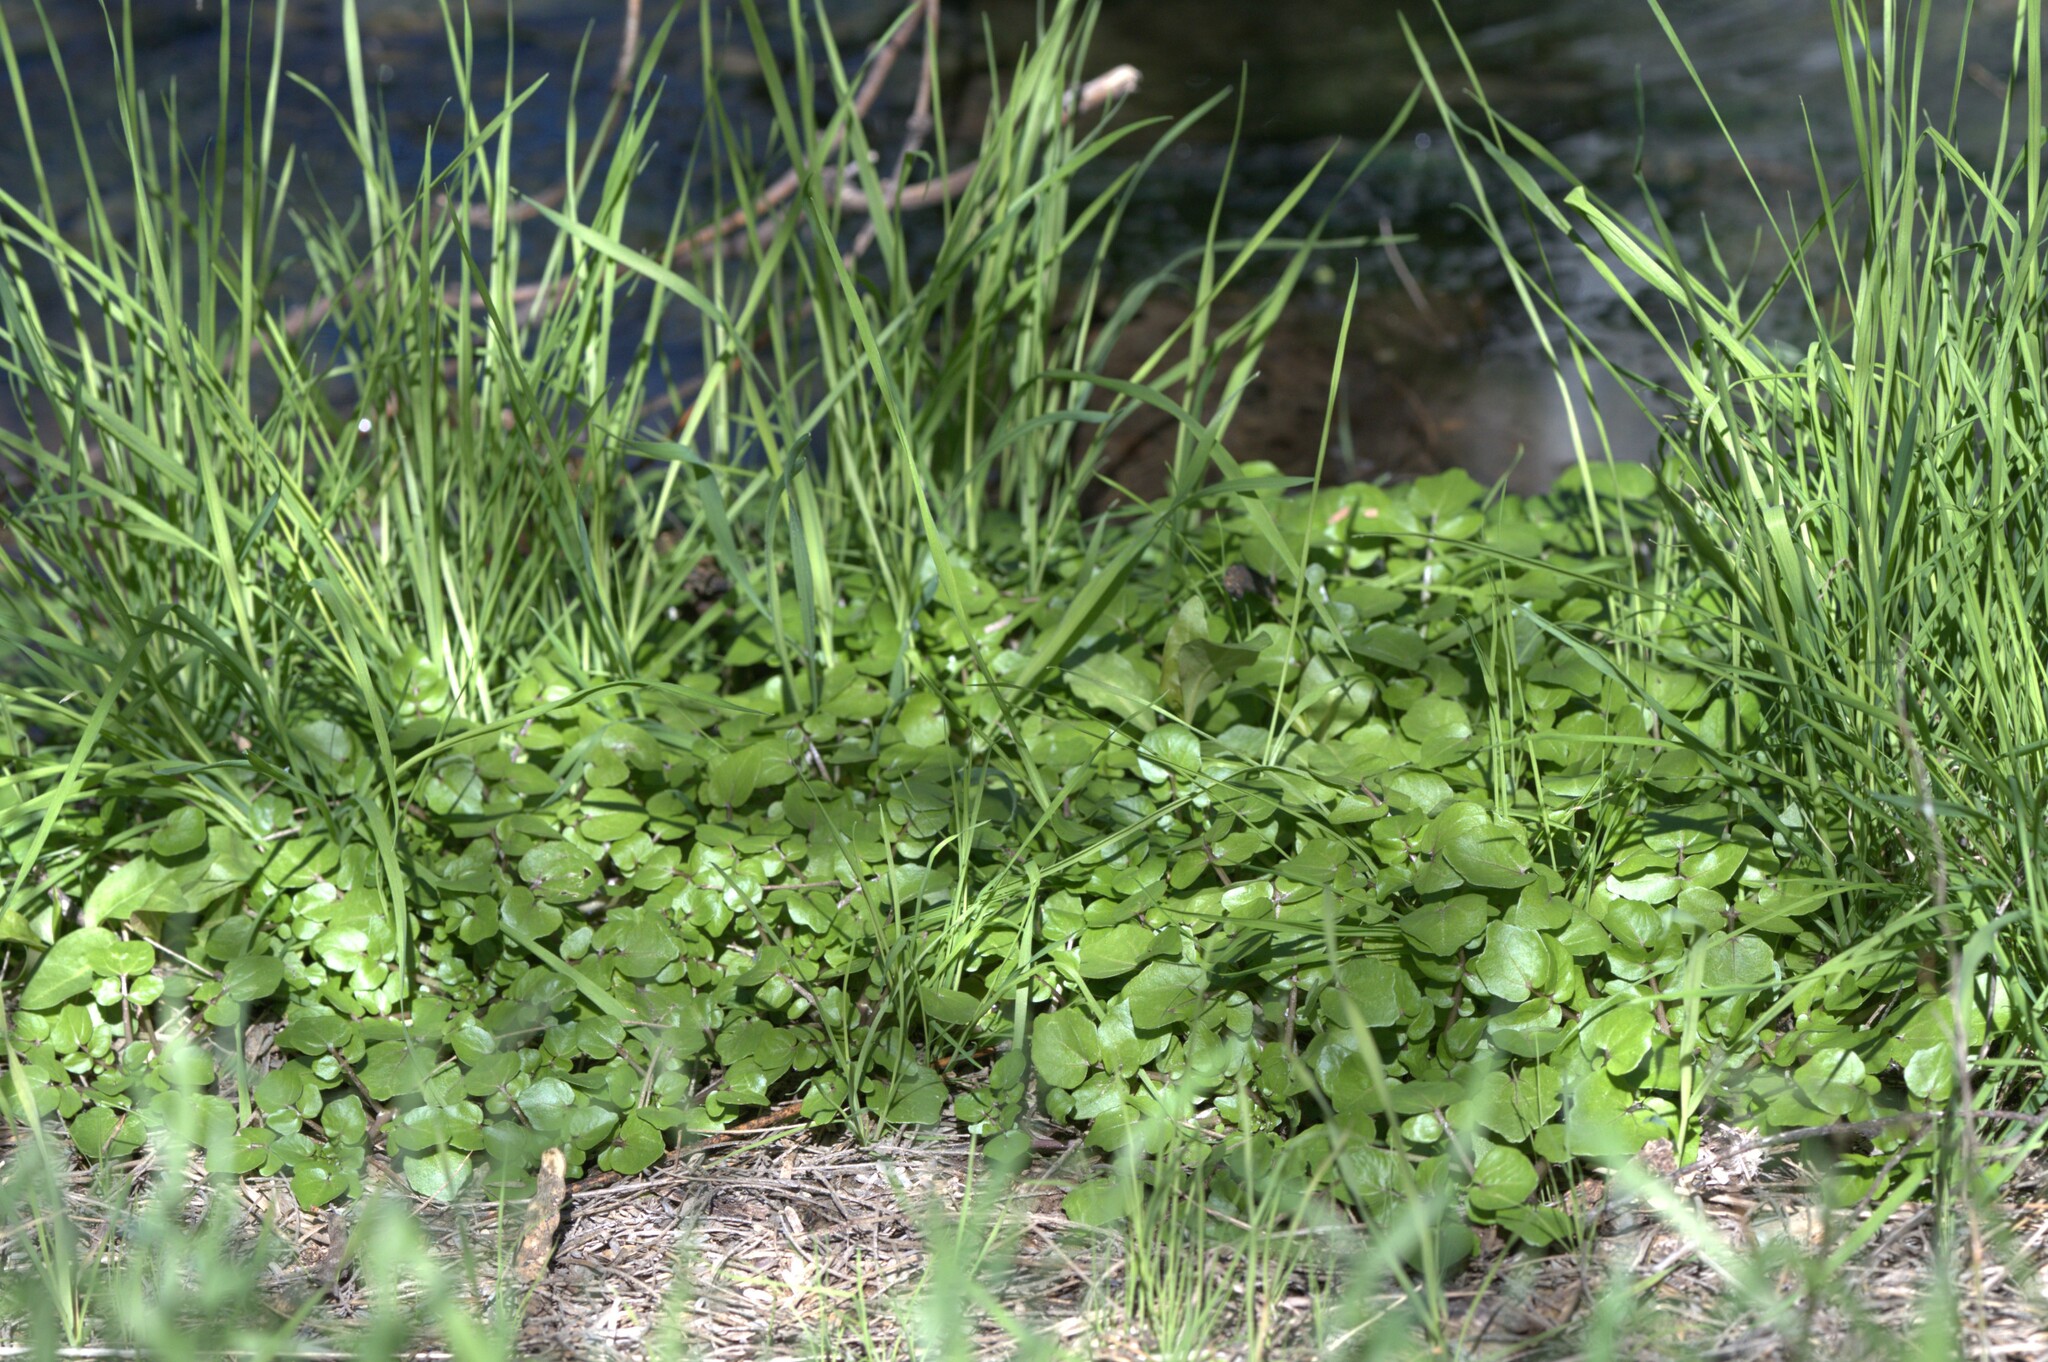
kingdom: Plantae
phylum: Tracheophyta
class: Magnoliopsida
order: Brassicales
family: Brassicaceae
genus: Nasturtium
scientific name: Nasturtium officinale
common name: Watercress
